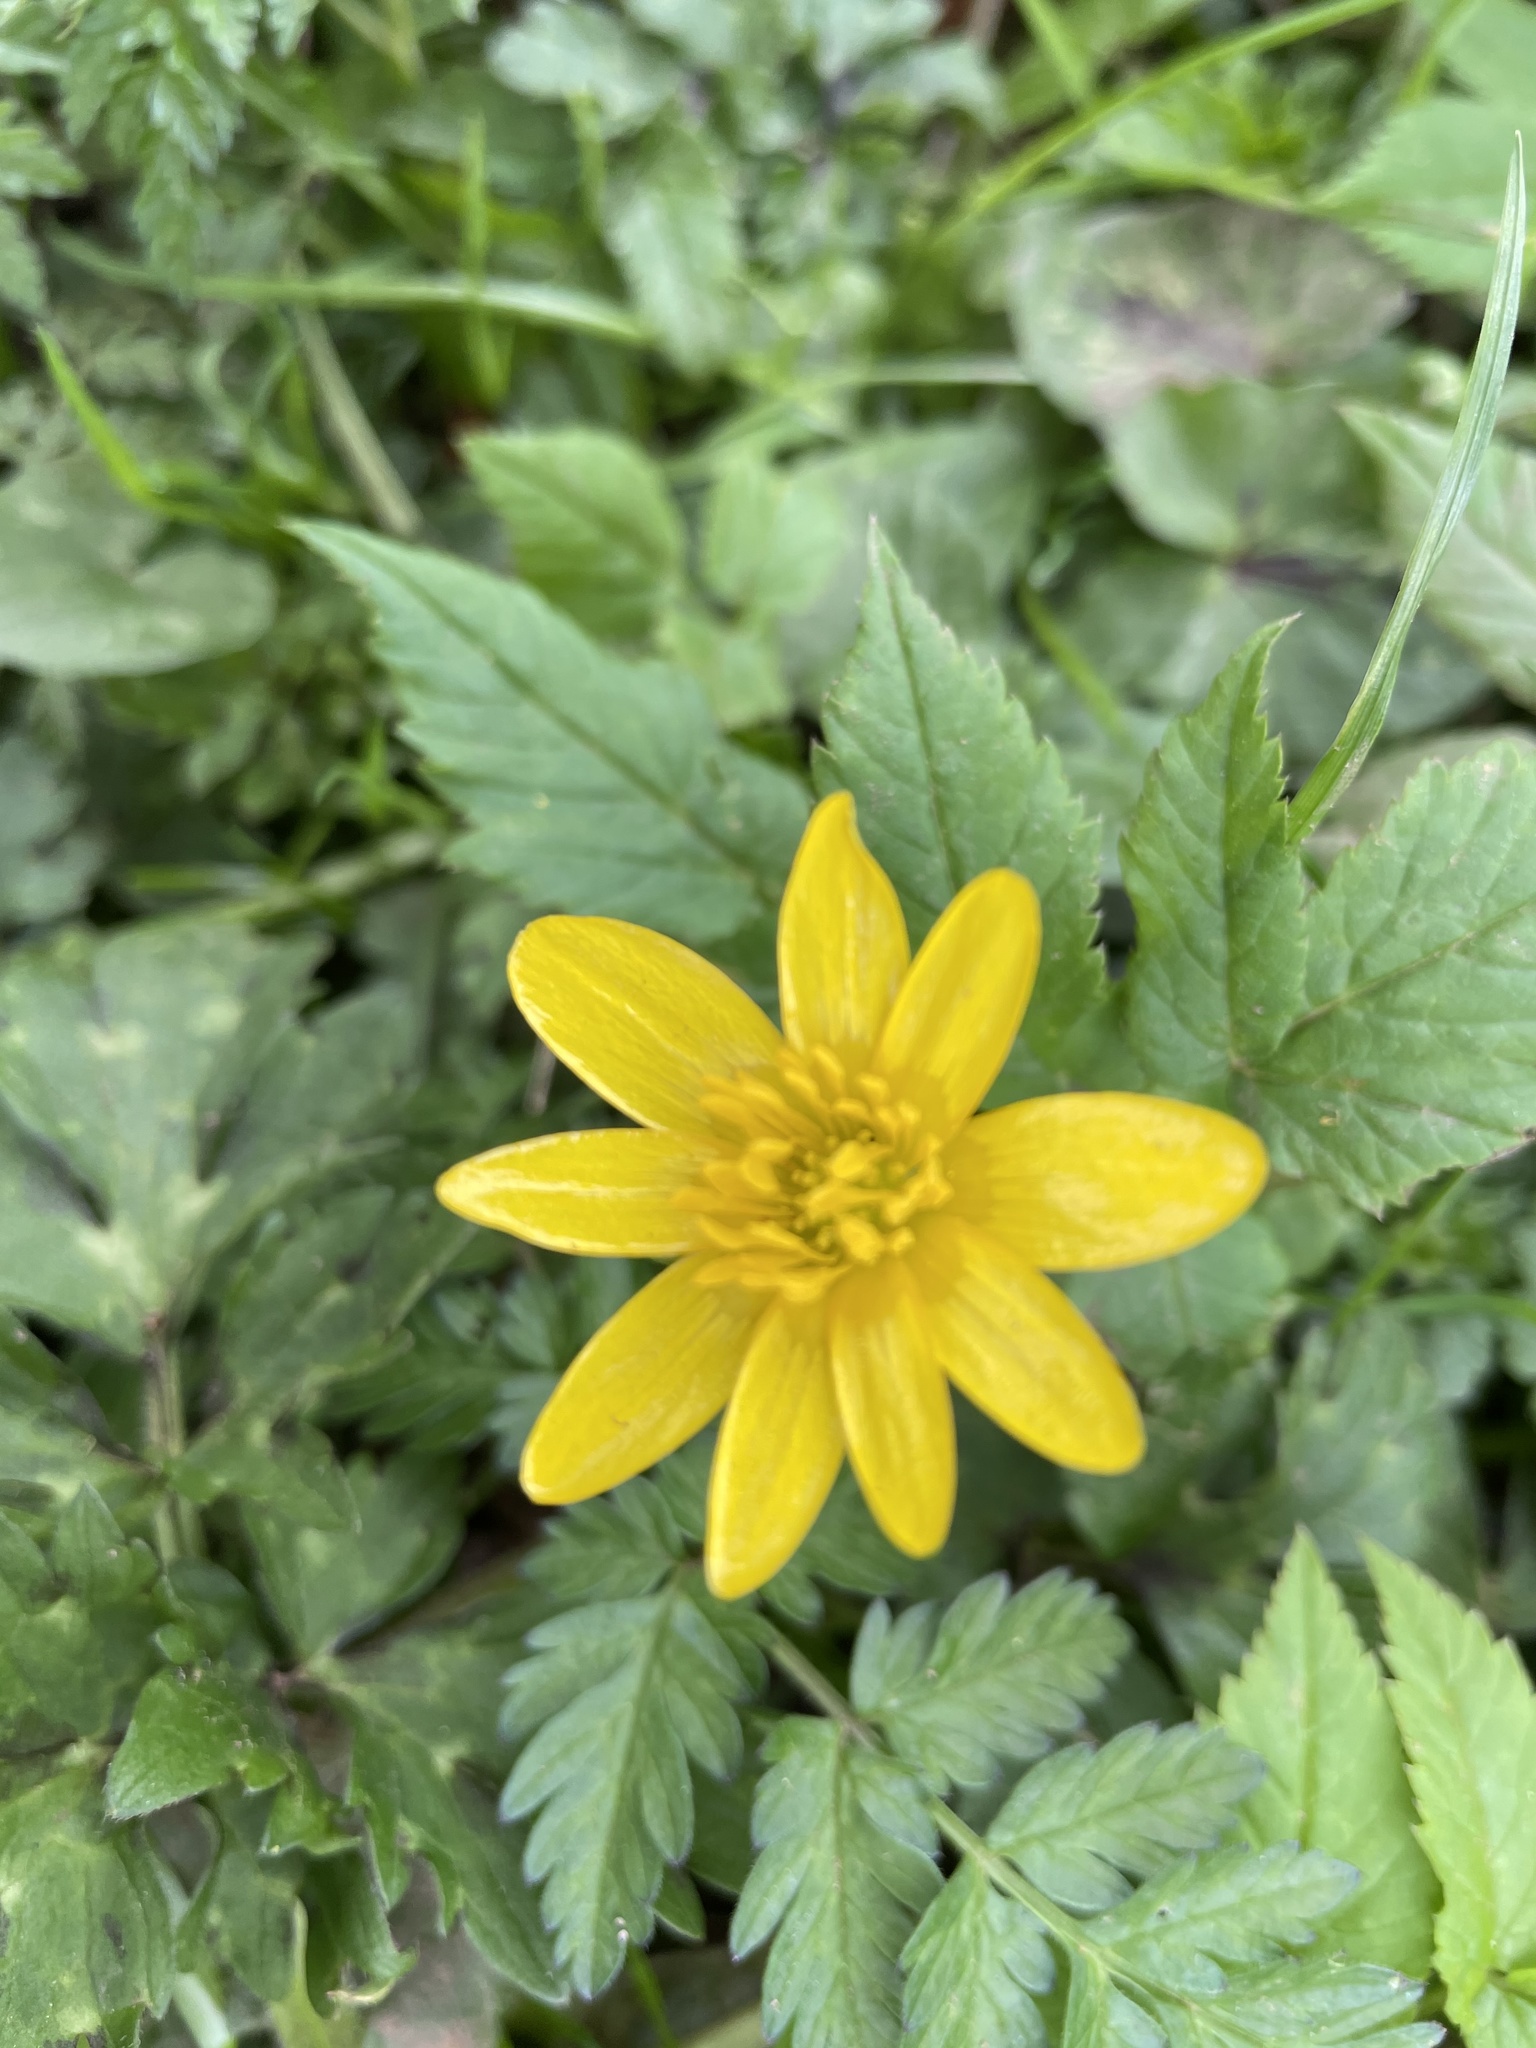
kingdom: Plantae
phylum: Tracheophyta
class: Magnoliopsida
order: Ranunculales
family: Ranunculaceae
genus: Ficaria
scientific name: Ficaria verna
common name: Lesser celandine
